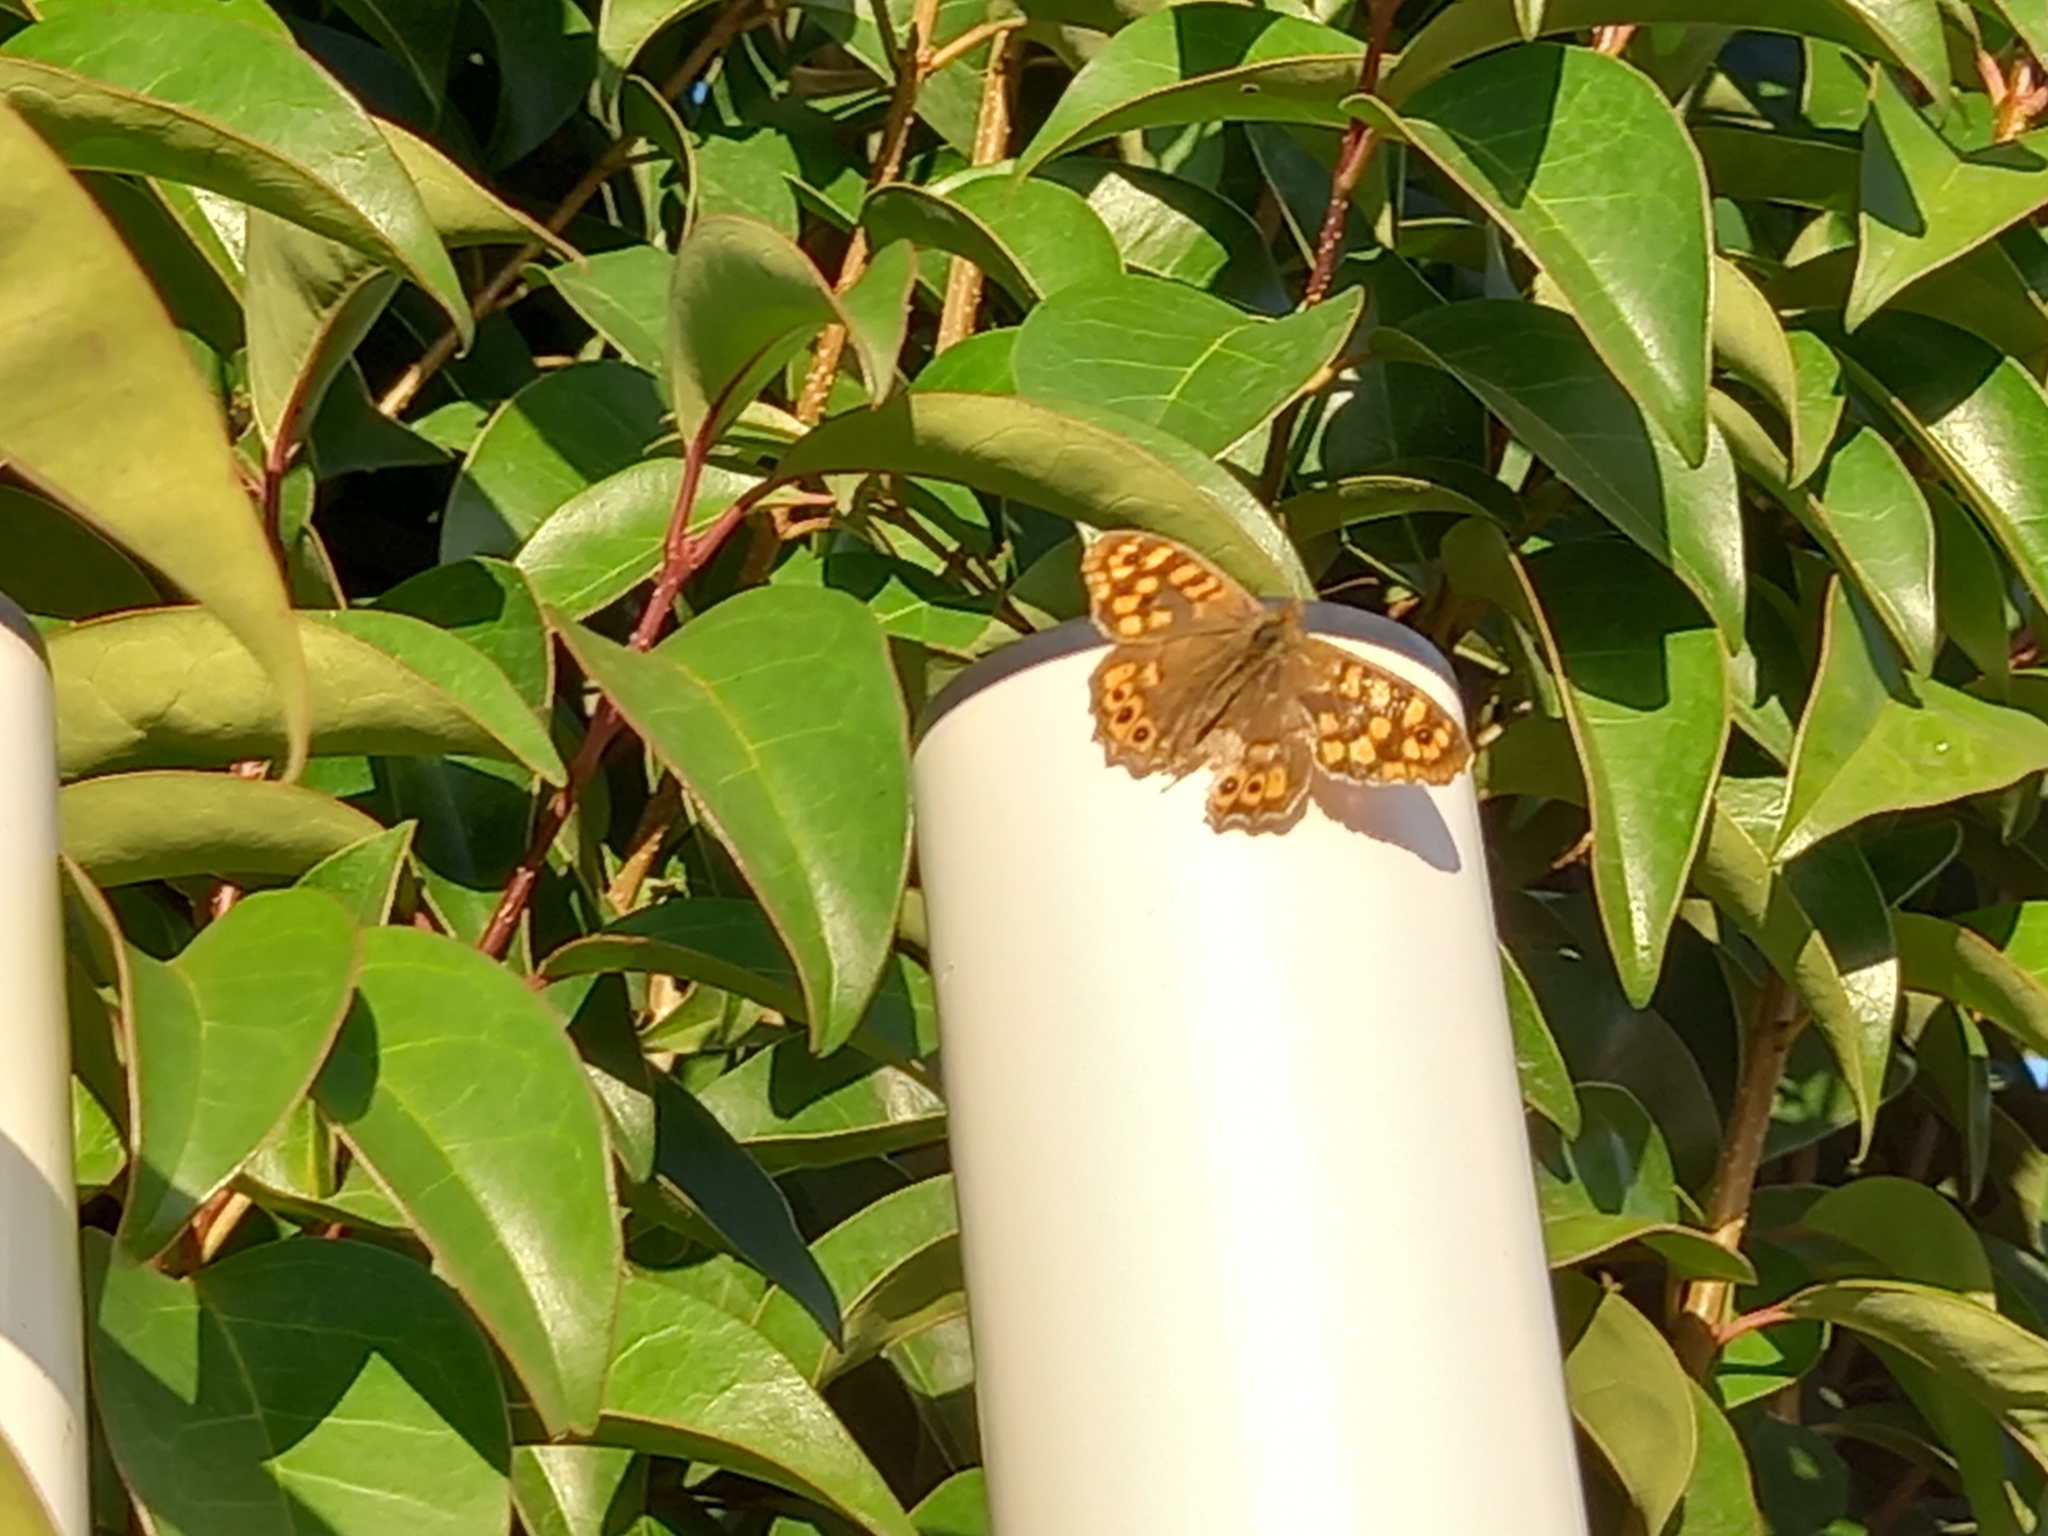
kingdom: Animalia
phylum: Arthropoda
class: Insecta
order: Lepidoptera
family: Nymphalidae
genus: Pararge
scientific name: Pararge aegeria
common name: Speckled wood
